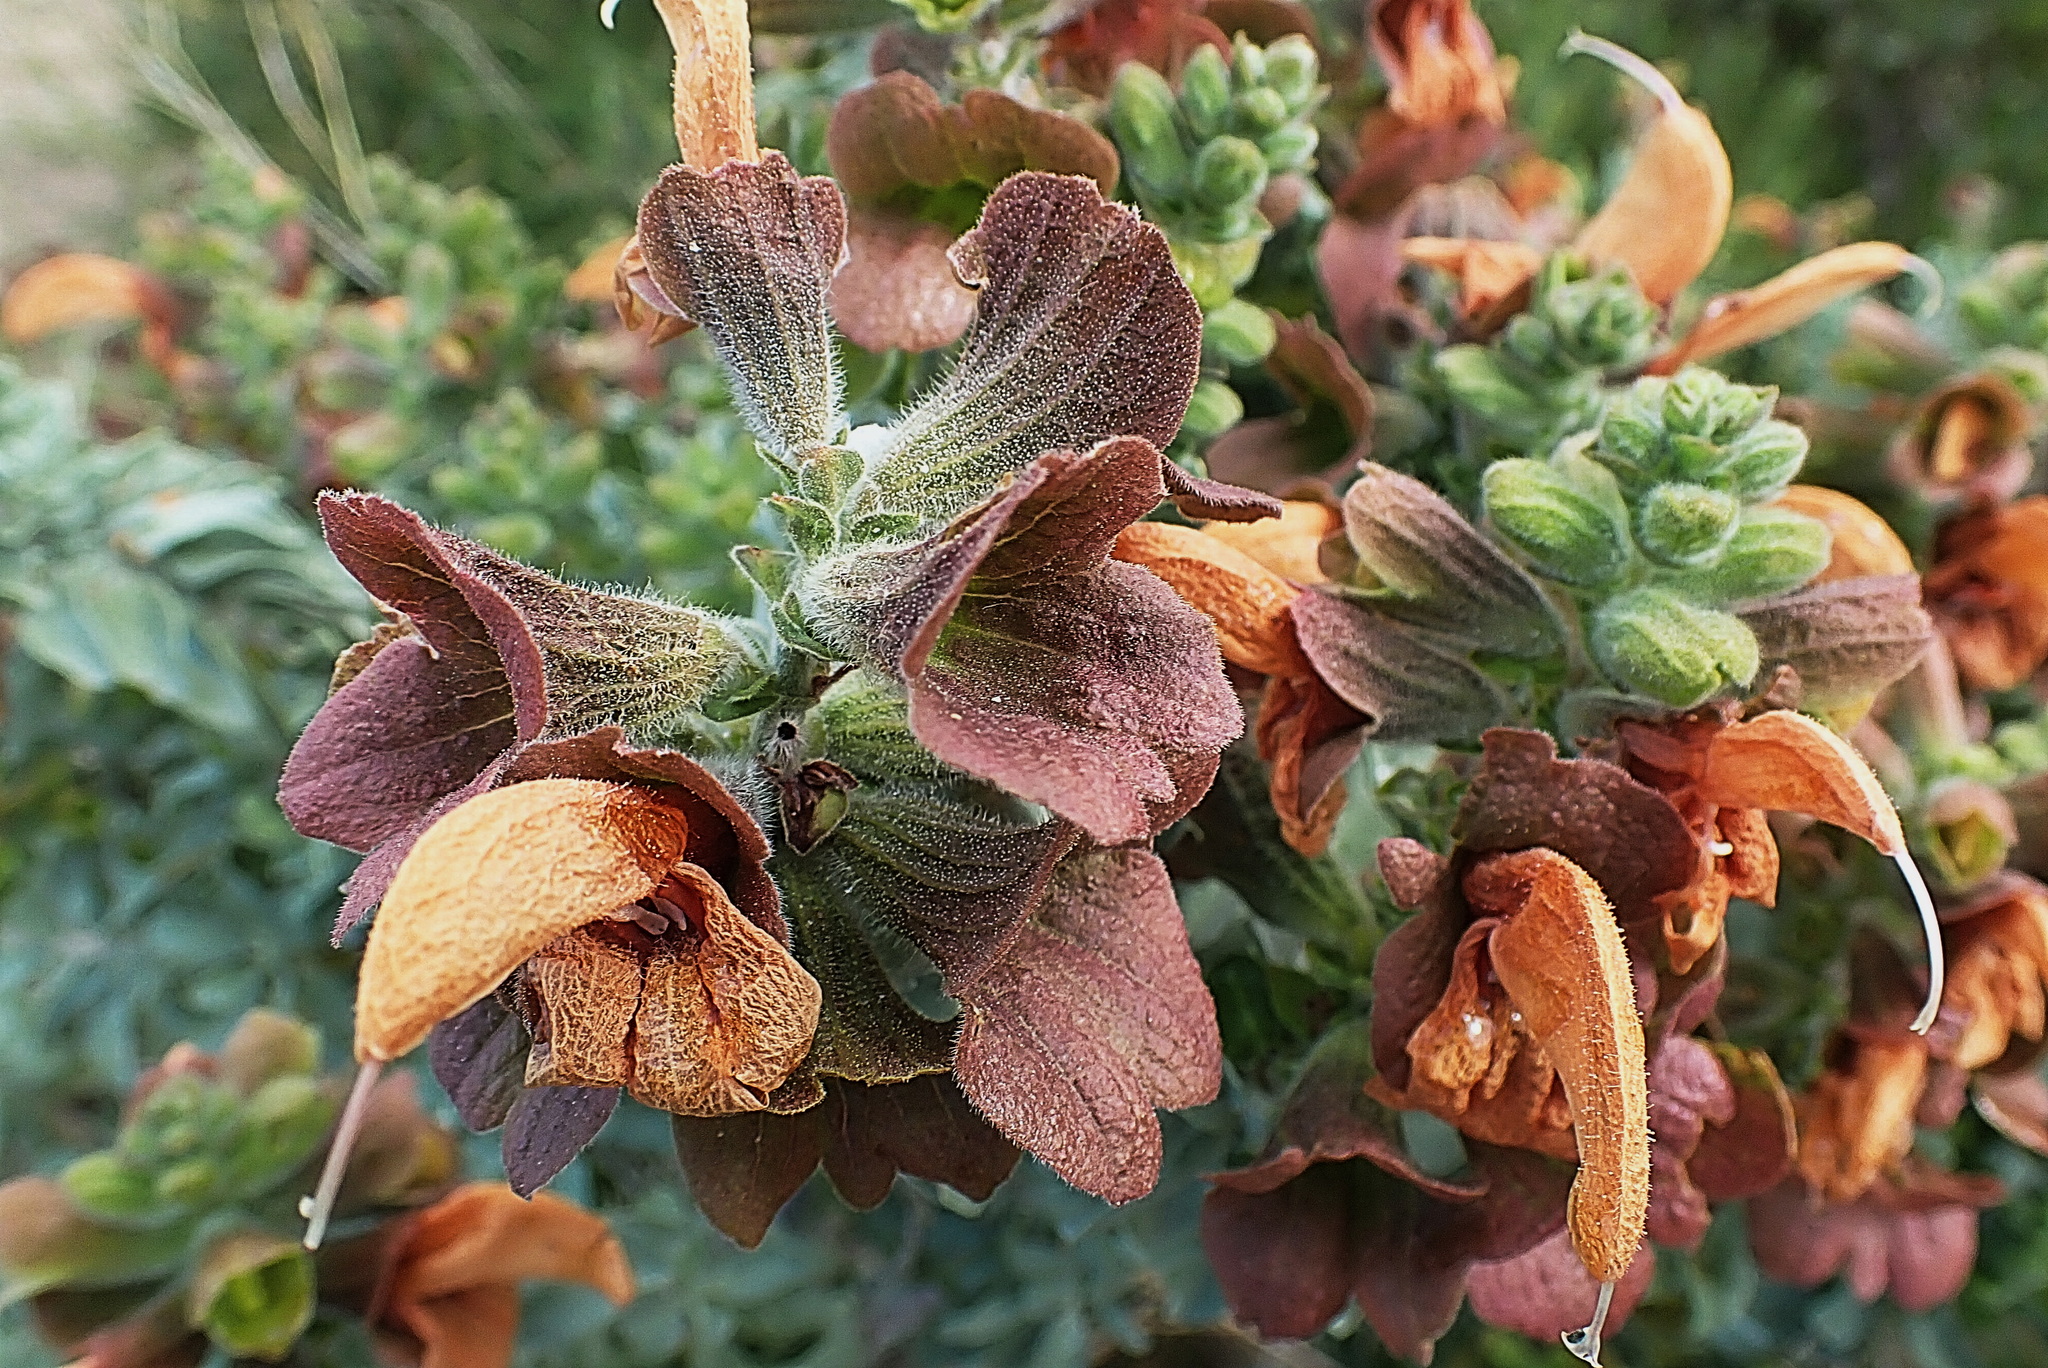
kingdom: Plantae
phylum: Tracheophyta
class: Magnoliopsida
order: Lamiales
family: Lamiaceae
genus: Salvia
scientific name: Salvia aurea
